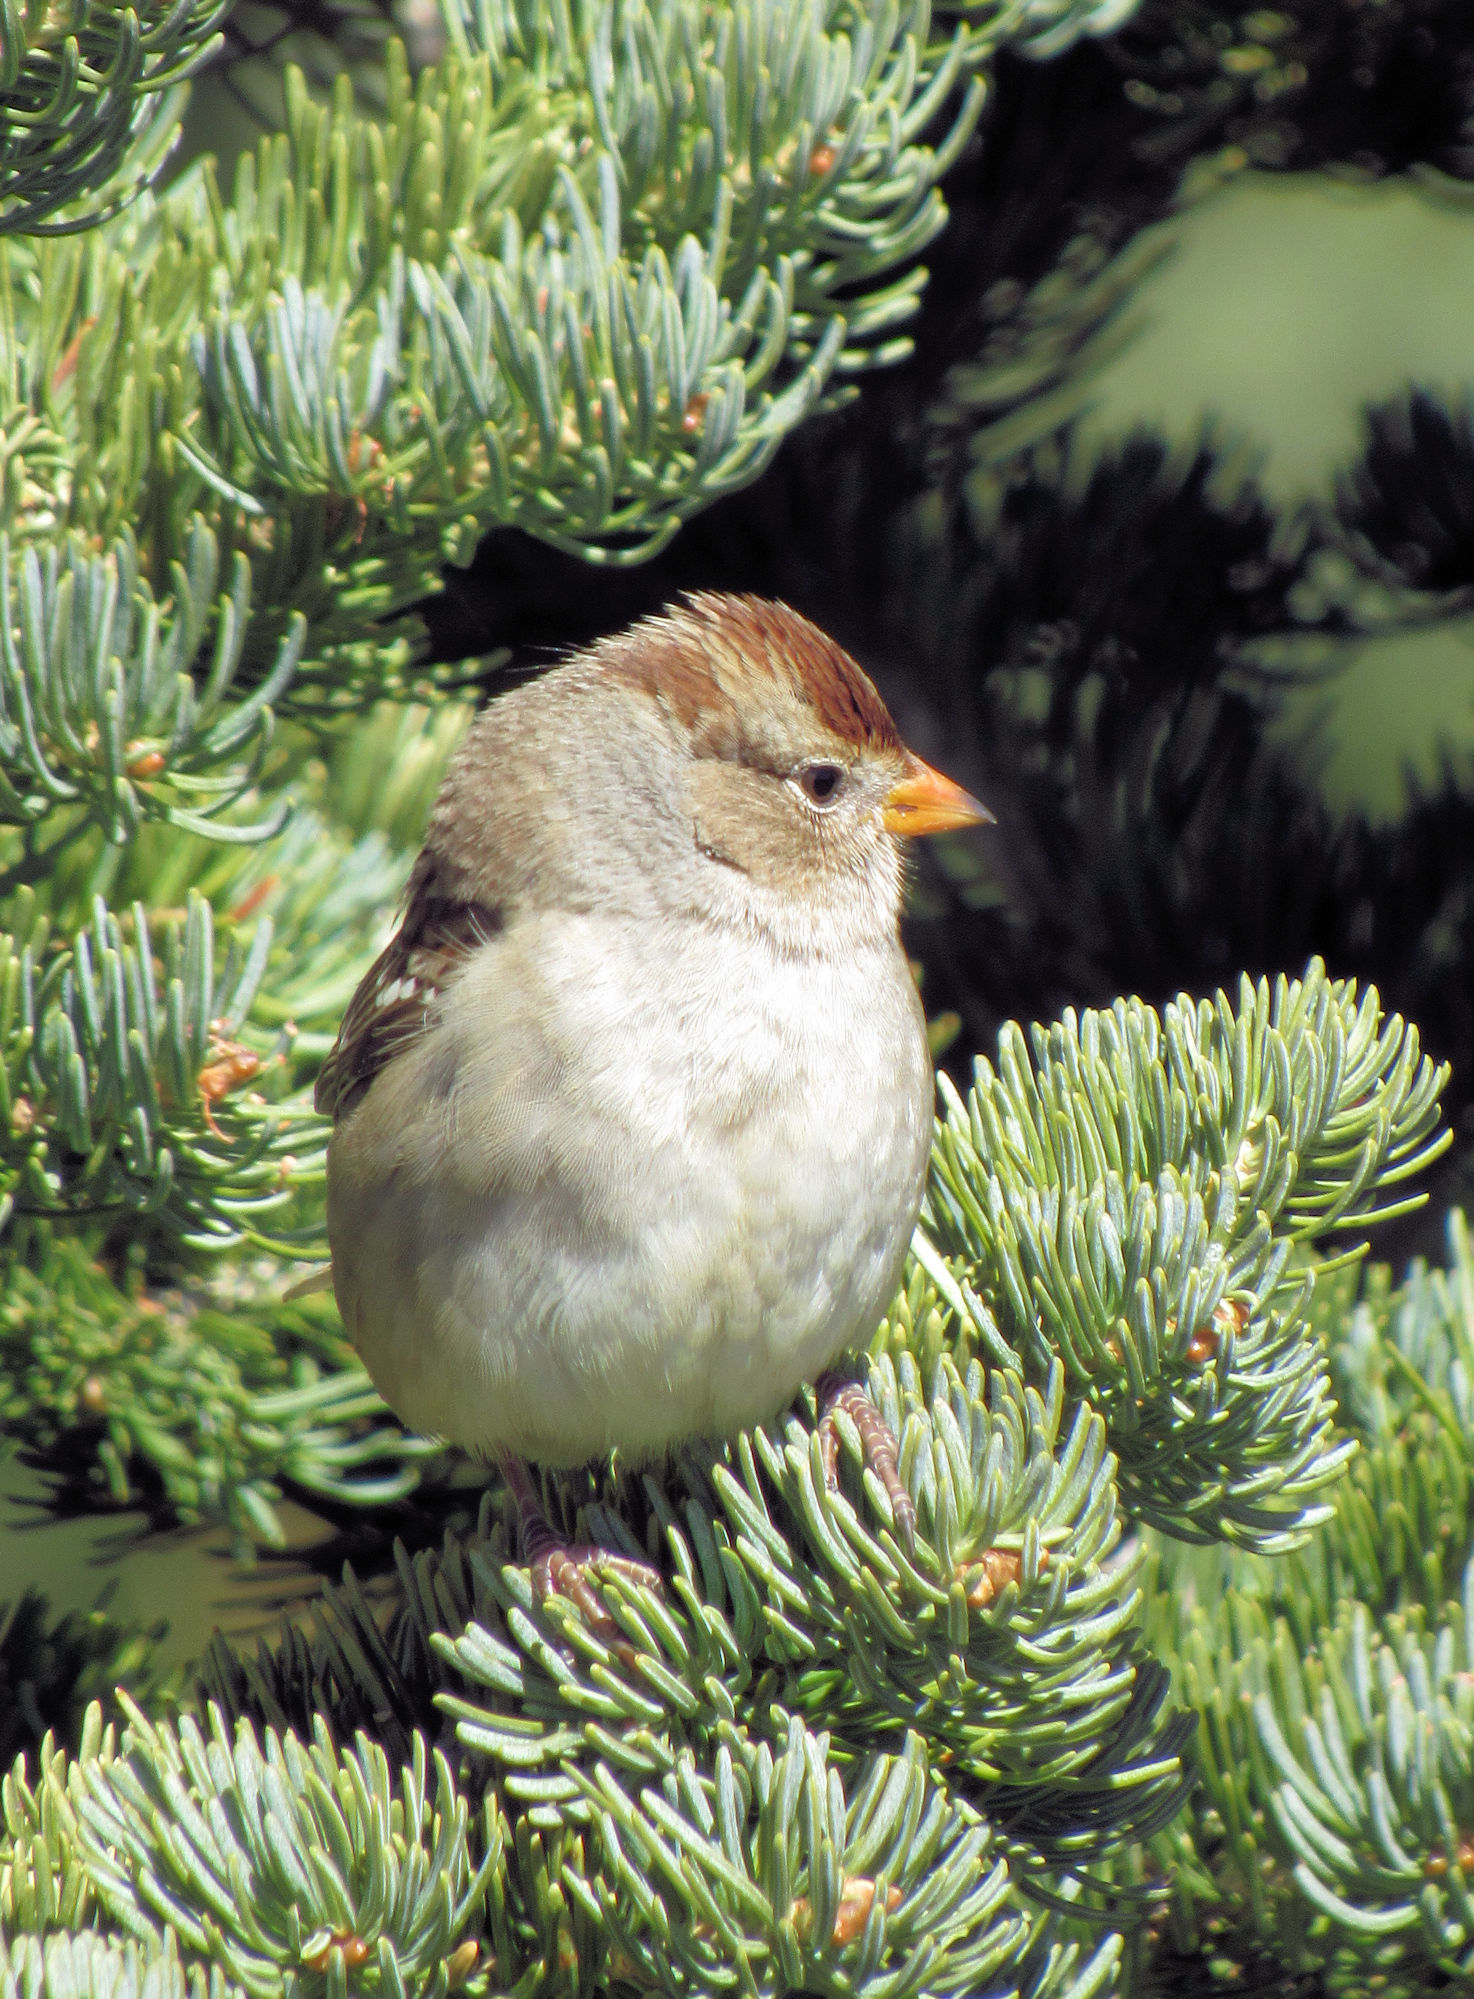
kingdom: Animalia
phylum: Chordata
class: Aves
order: Passeriformes
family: Passerellidae
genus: Zonotrichia
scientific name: Zonotrichia leucophrys
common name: White-crowned sparrow
